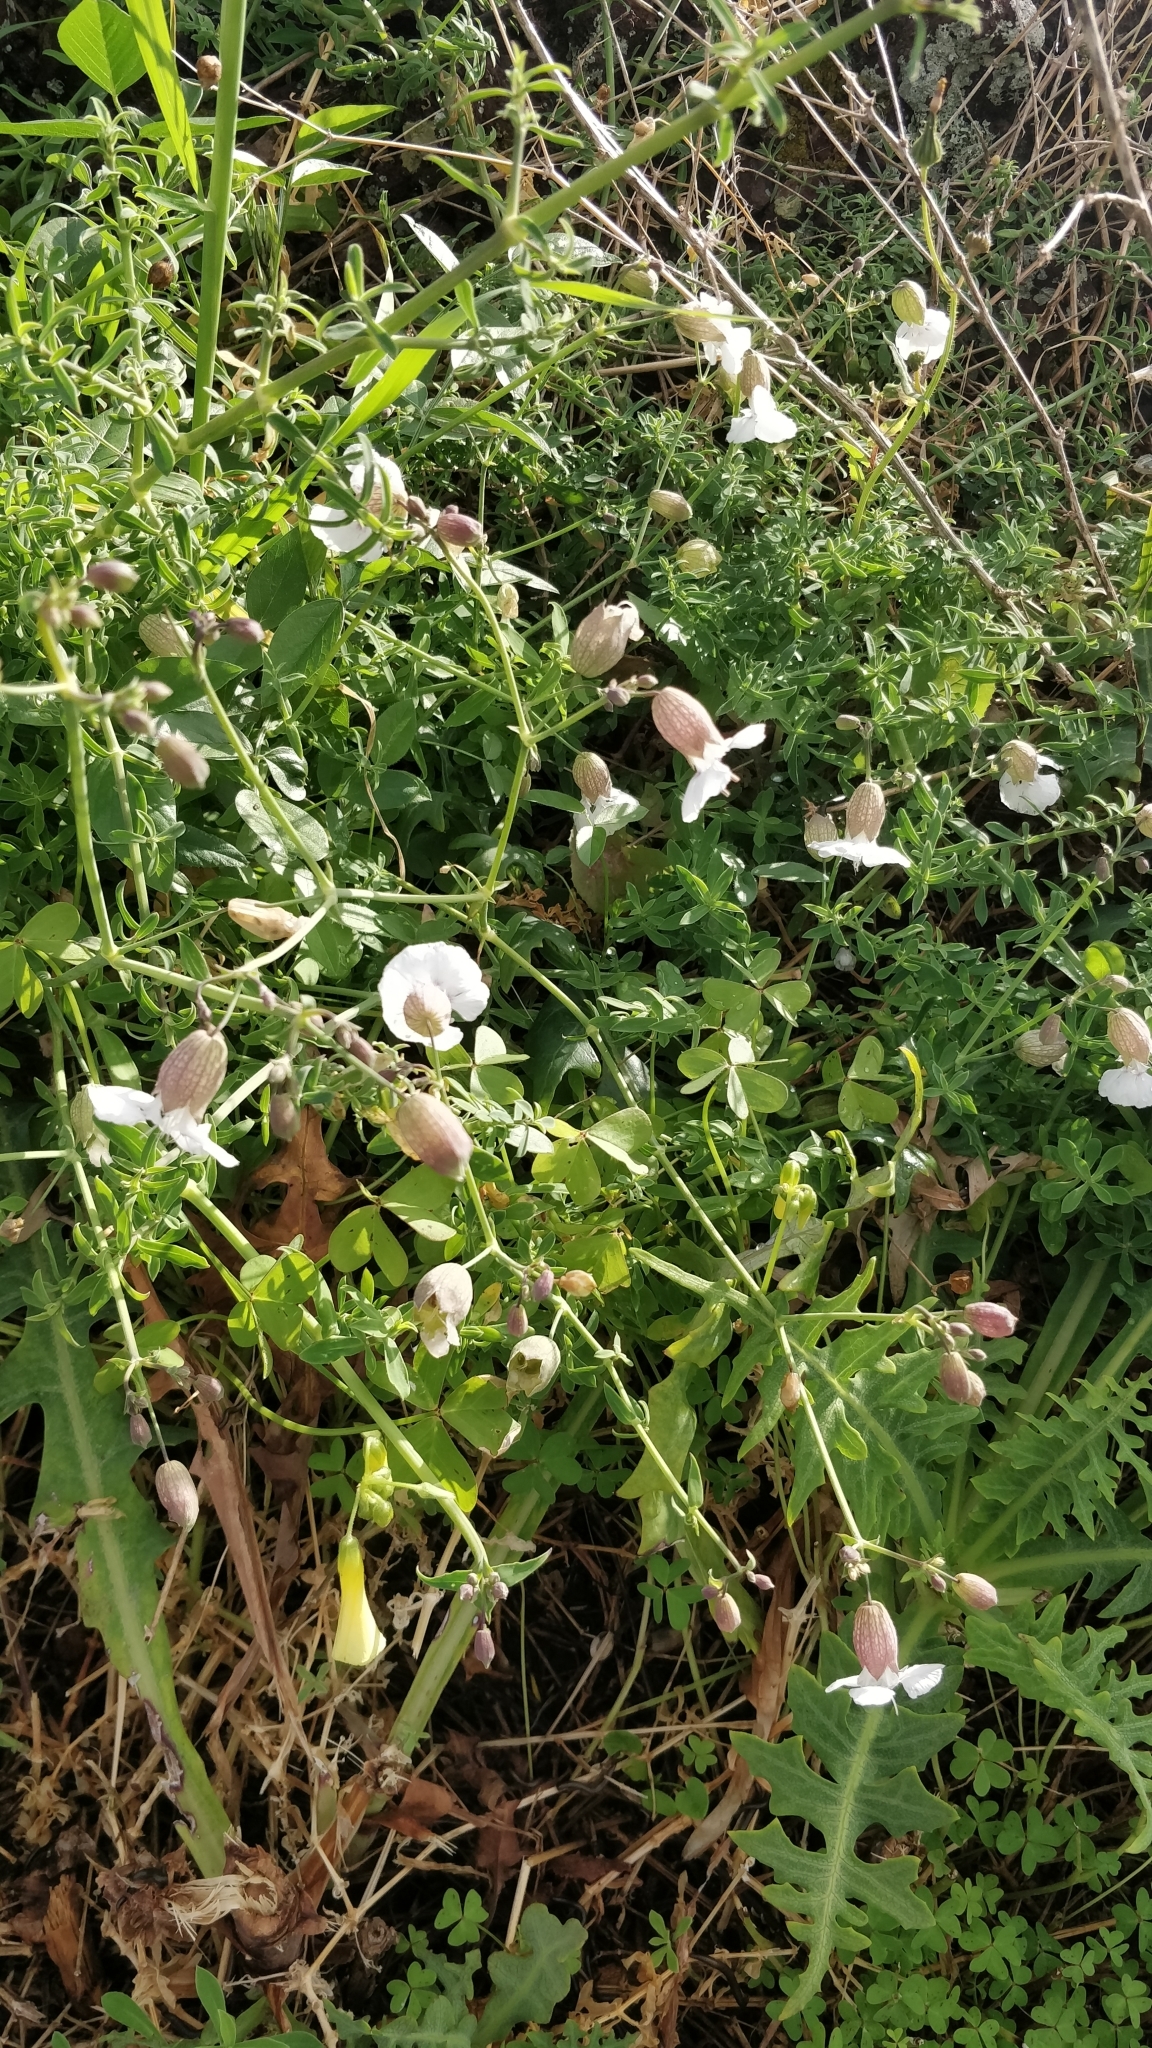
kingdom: Plantae
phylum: Tracheophyta
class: Magnoliopsida
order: Caryophyllales
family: Caryophyllaceae
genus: Silene
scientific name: Silene uniflora
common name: Sea campion
